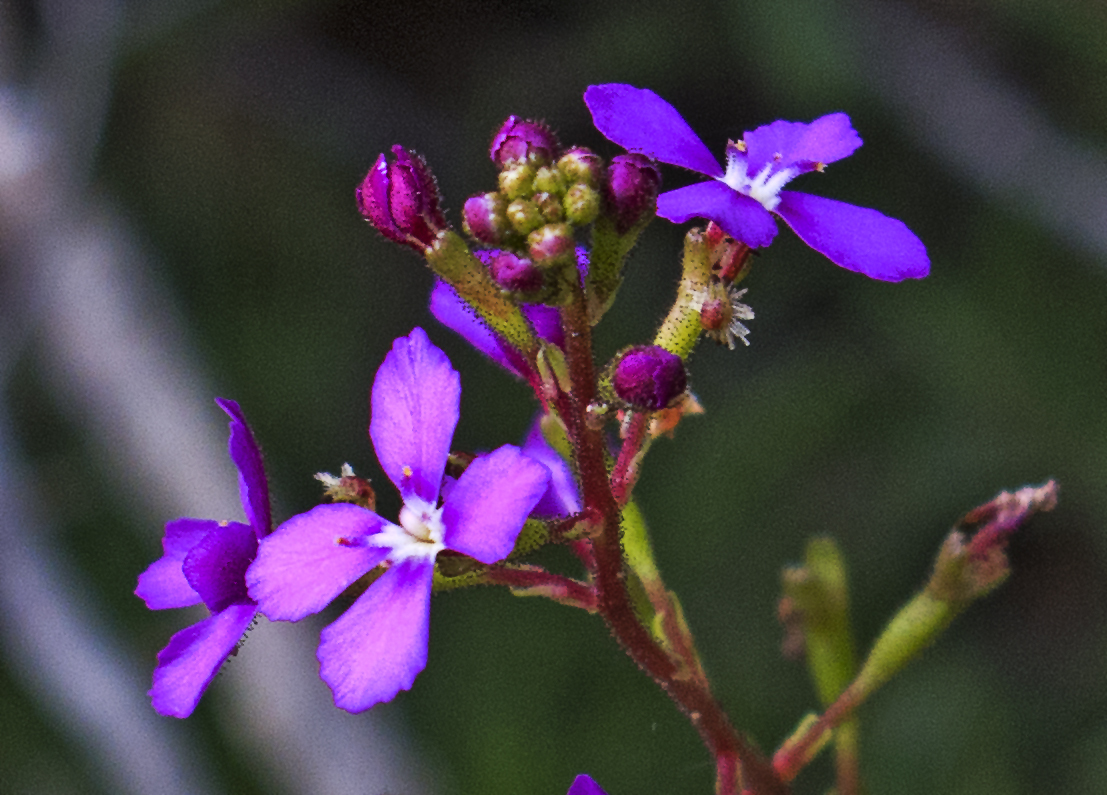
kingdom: Plantae
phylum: Tracheophyta
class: Magnoliopsida
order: Asterales
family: Stylidiaceae
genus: Stylidium
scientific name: Stylidium lineare
